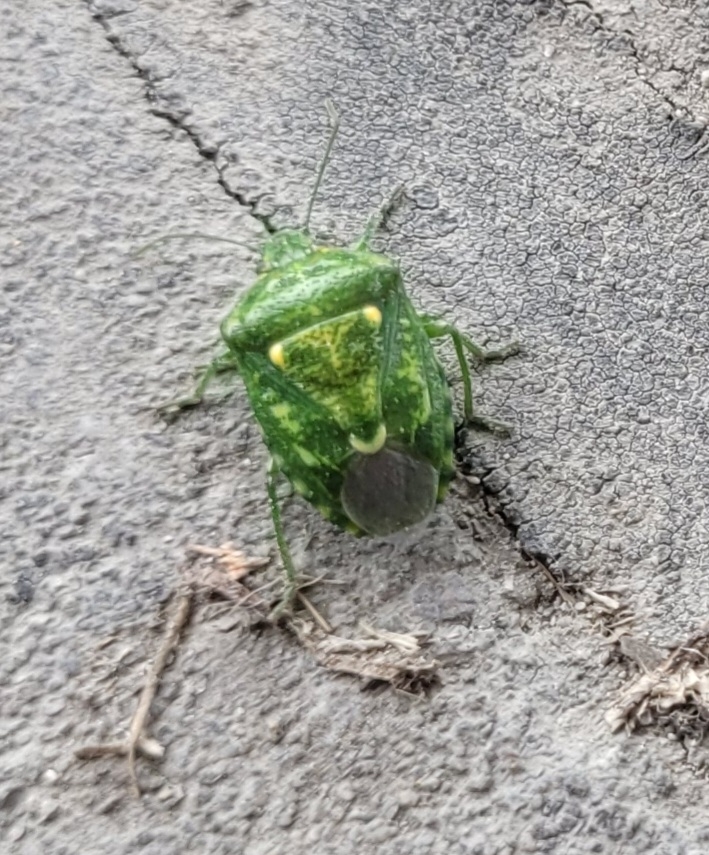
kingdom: Animalia
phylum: Arthropoda
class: Insecta
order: Hemiptera
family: Pentatomidae
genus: Banasa
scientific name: Banasa euchlora
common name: Cedar berry bug
